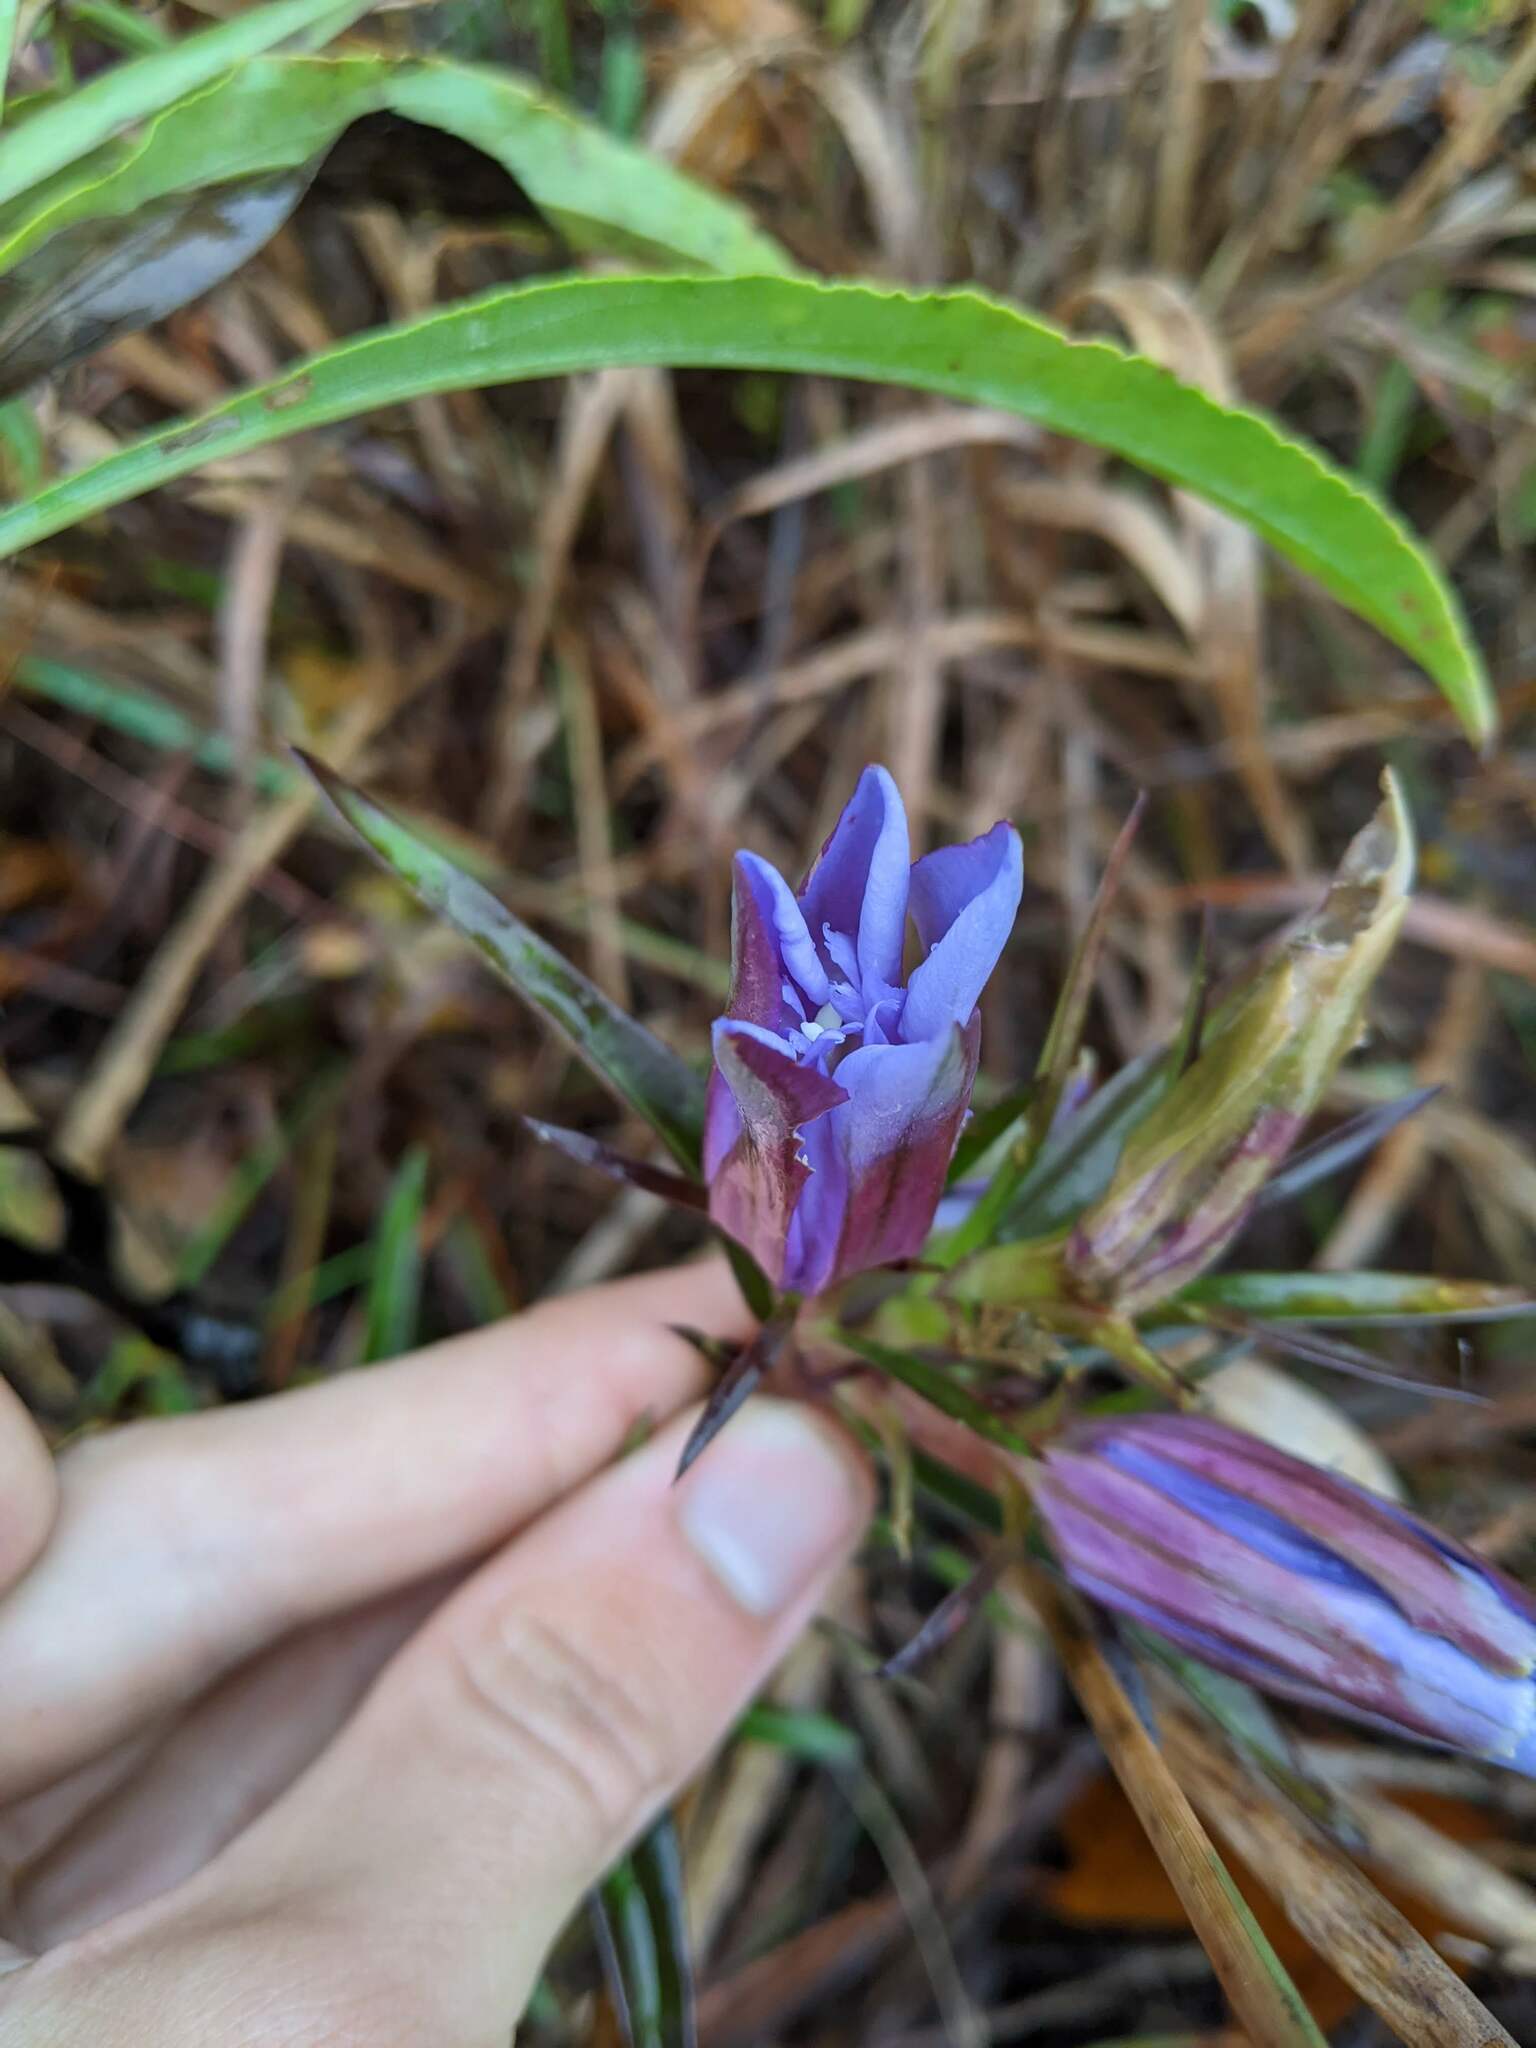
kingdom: Plantae
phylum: Tracheophyta
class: Magnoliopsida
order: Gentianales
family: Gentianaceae
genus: Gentiana
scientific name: Gentiana puberulenta
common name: Downy gentian
